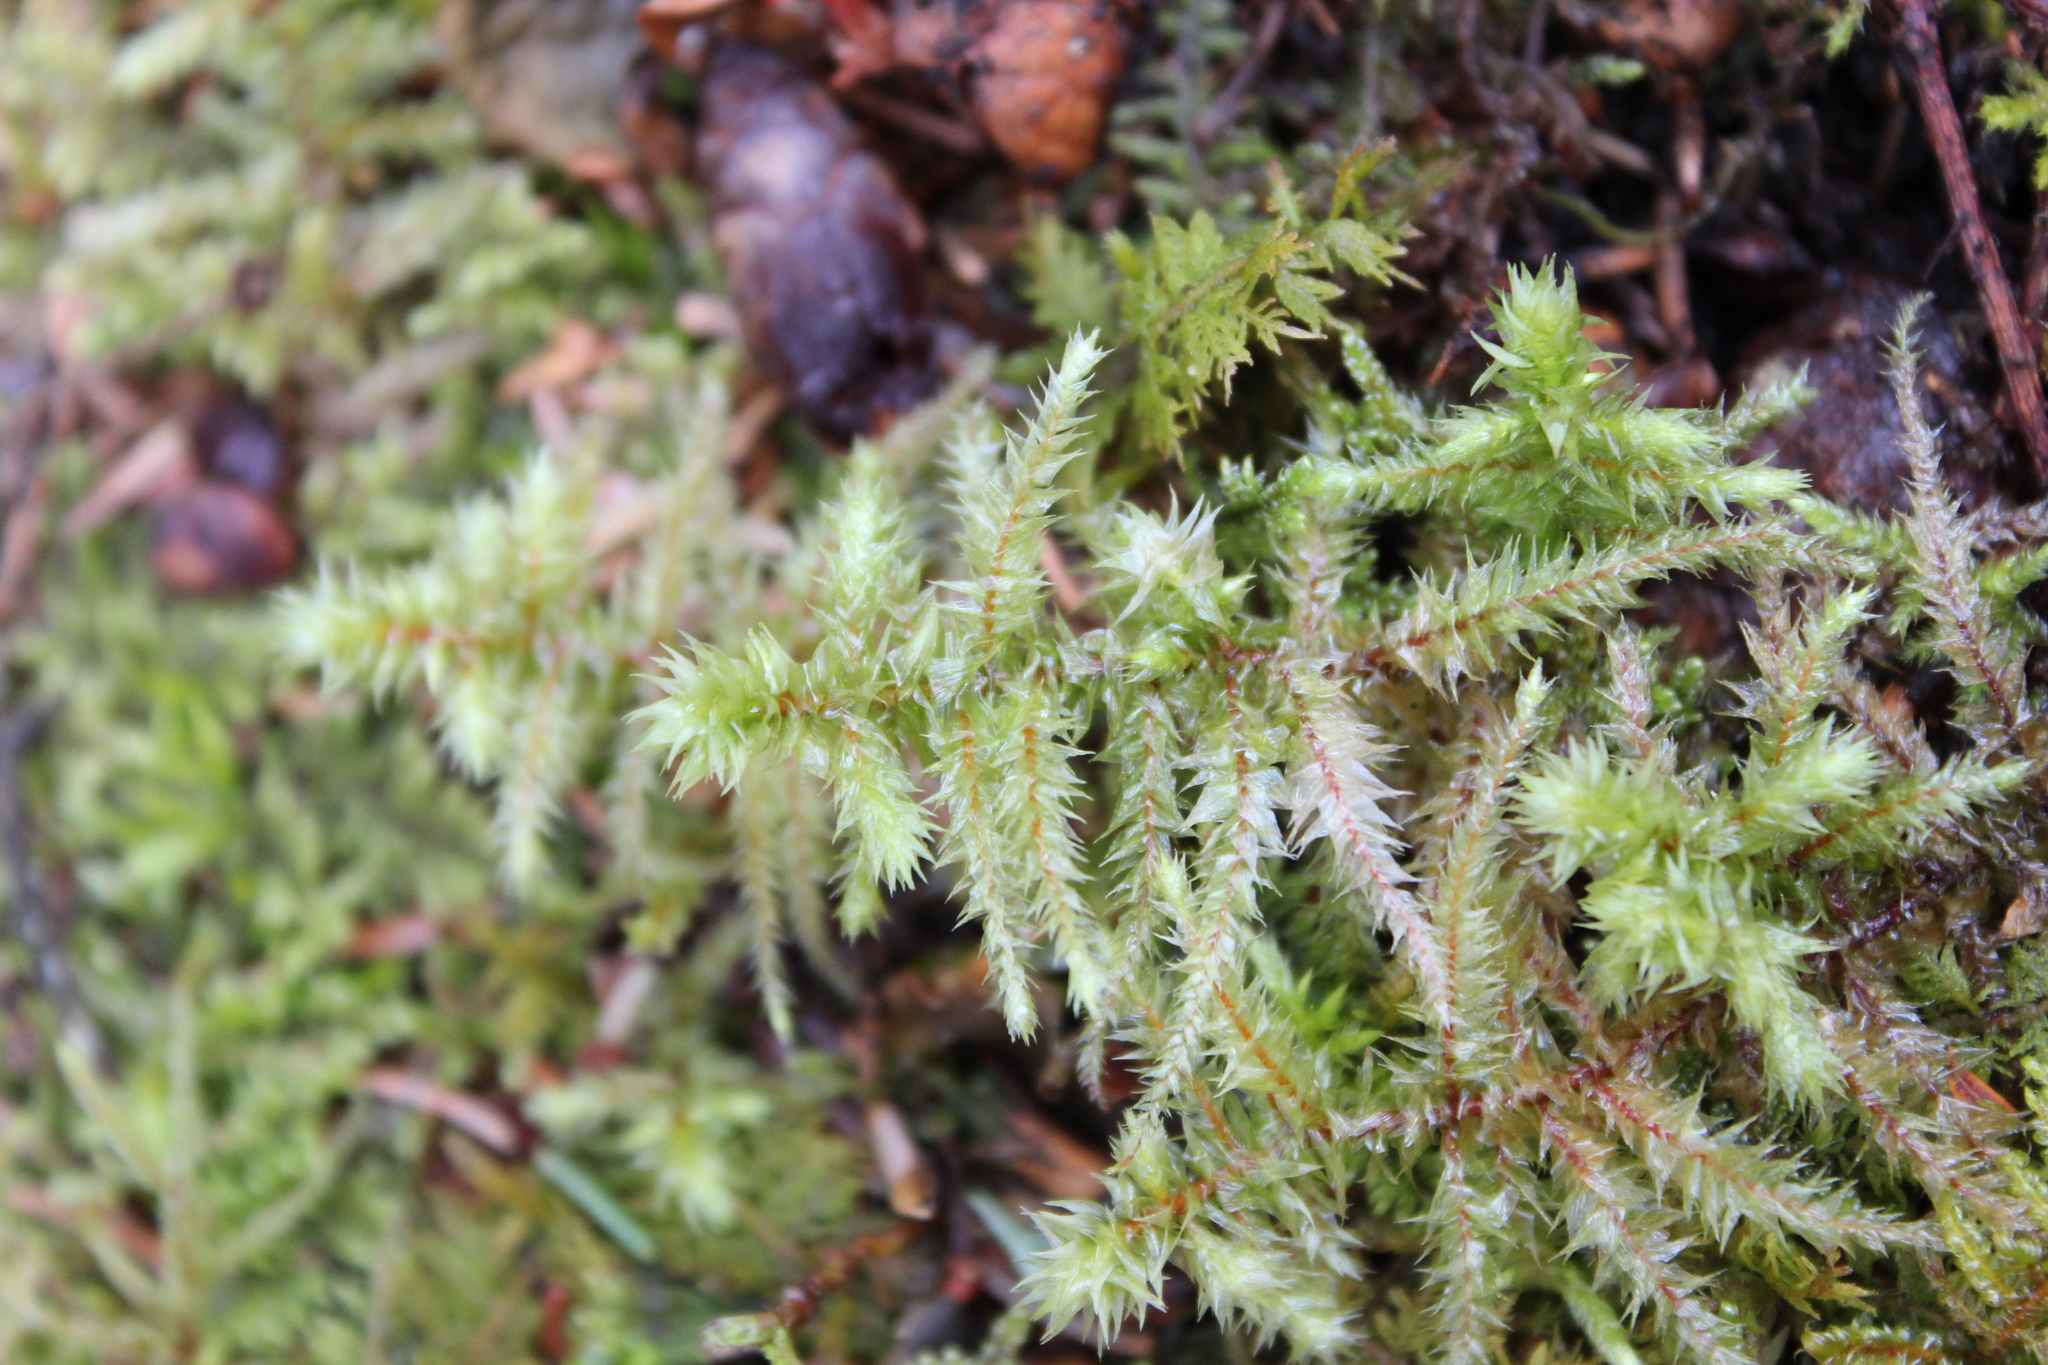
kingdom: Plantae
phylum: Bryophyta
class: Bryopsida
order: Hypnales
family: Hylocomiaceae
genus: Hylocomiadelphus
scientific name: Hylocomiadelphus triquetrus
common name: Rough goose neck moss
